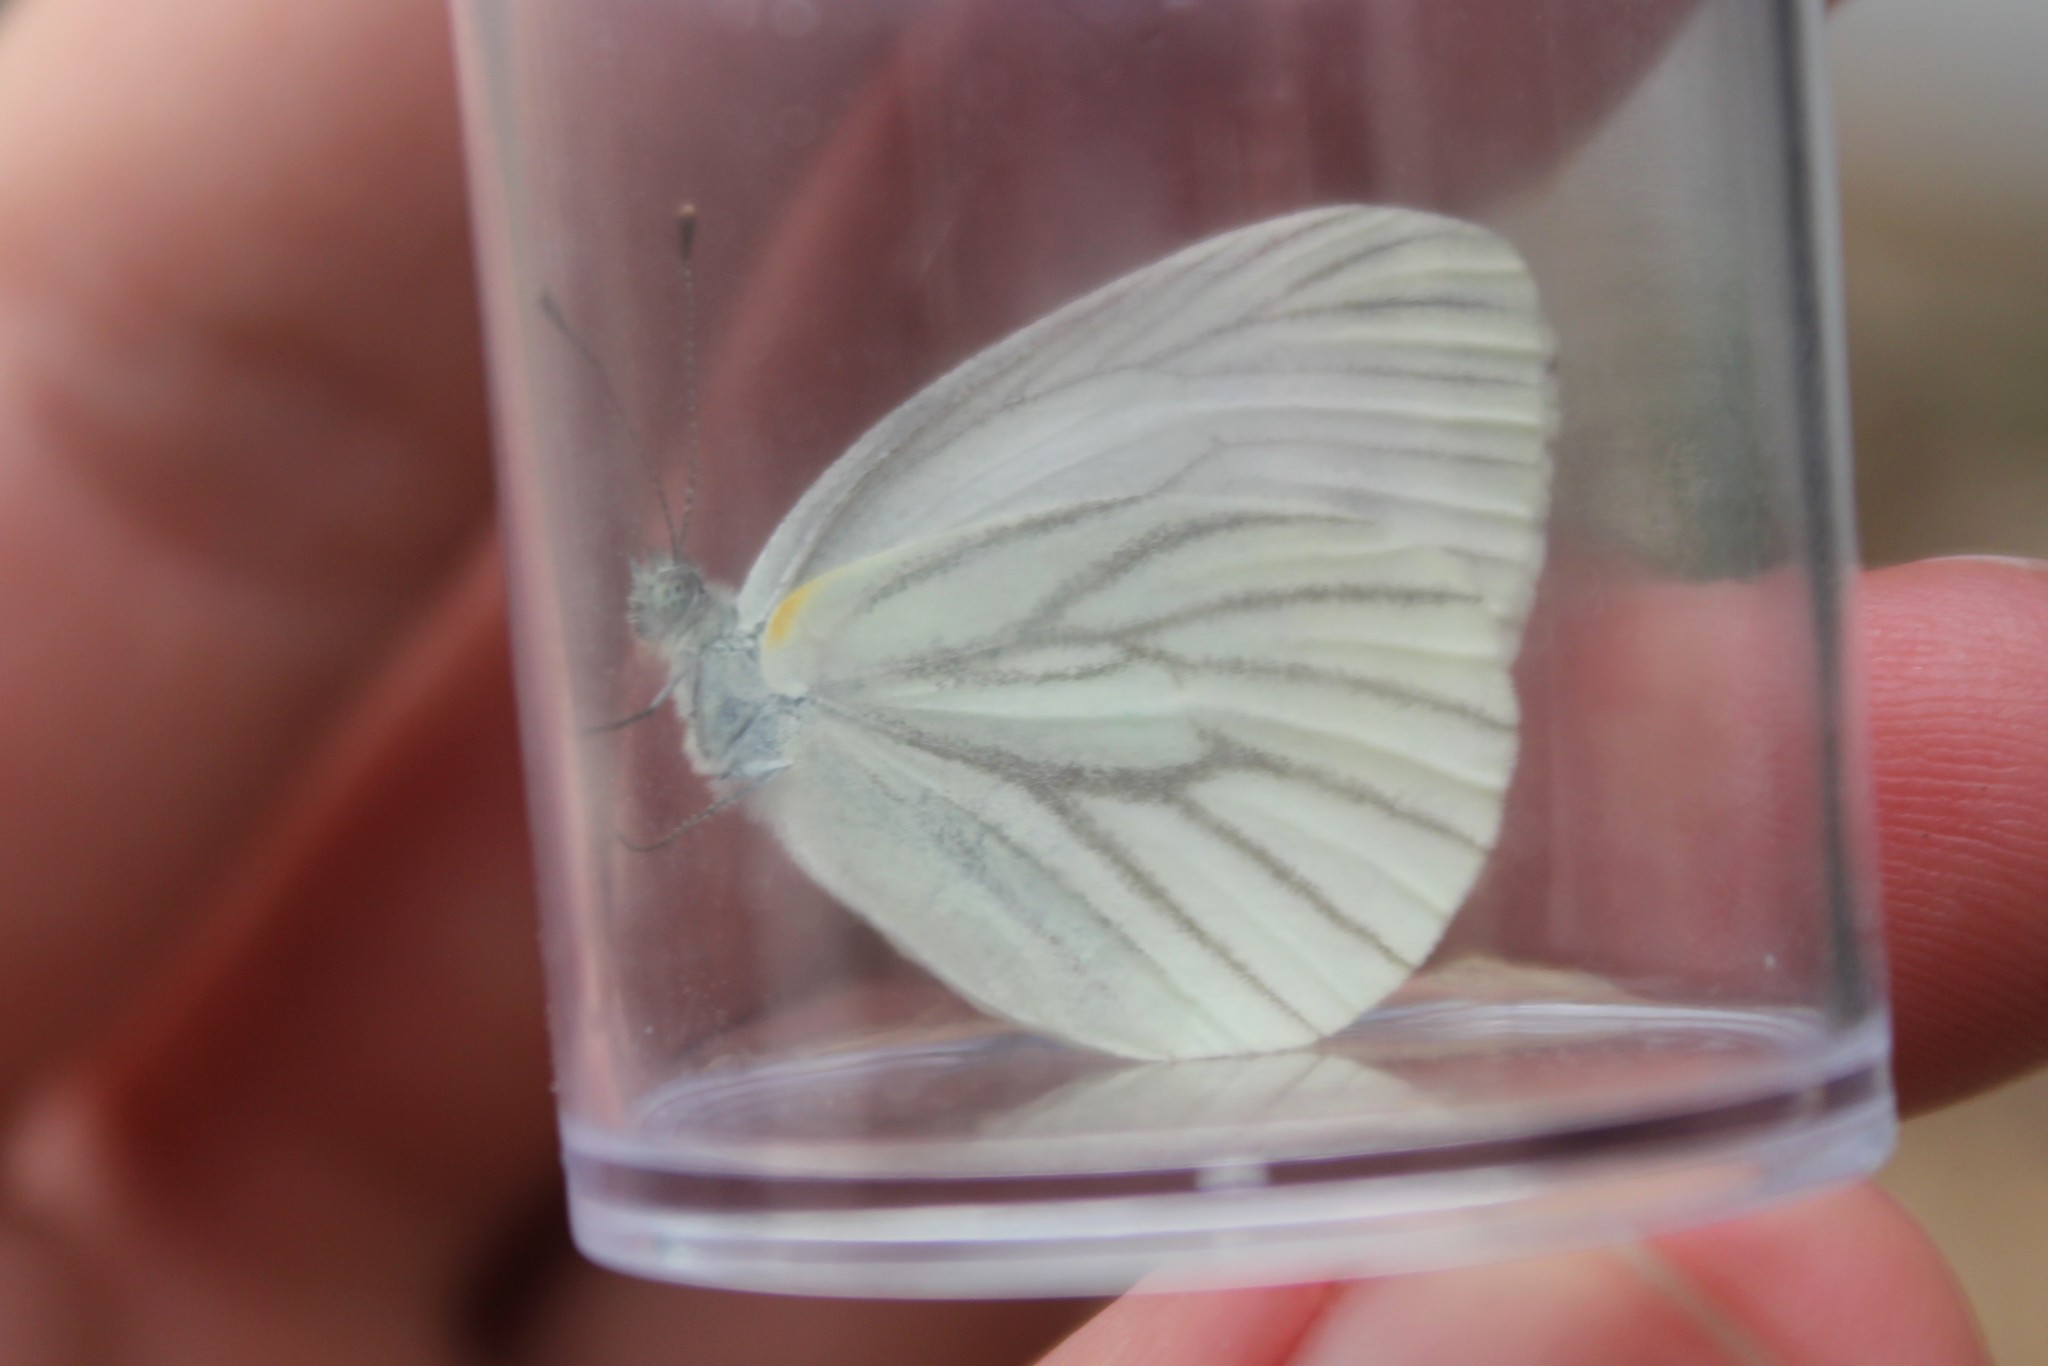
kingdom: Animalia
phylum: Arthropoda
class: Insecta
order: Lepidoptera
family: Pieridae
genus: Pieris
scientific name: Pieris oleracea
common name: Mustard white
